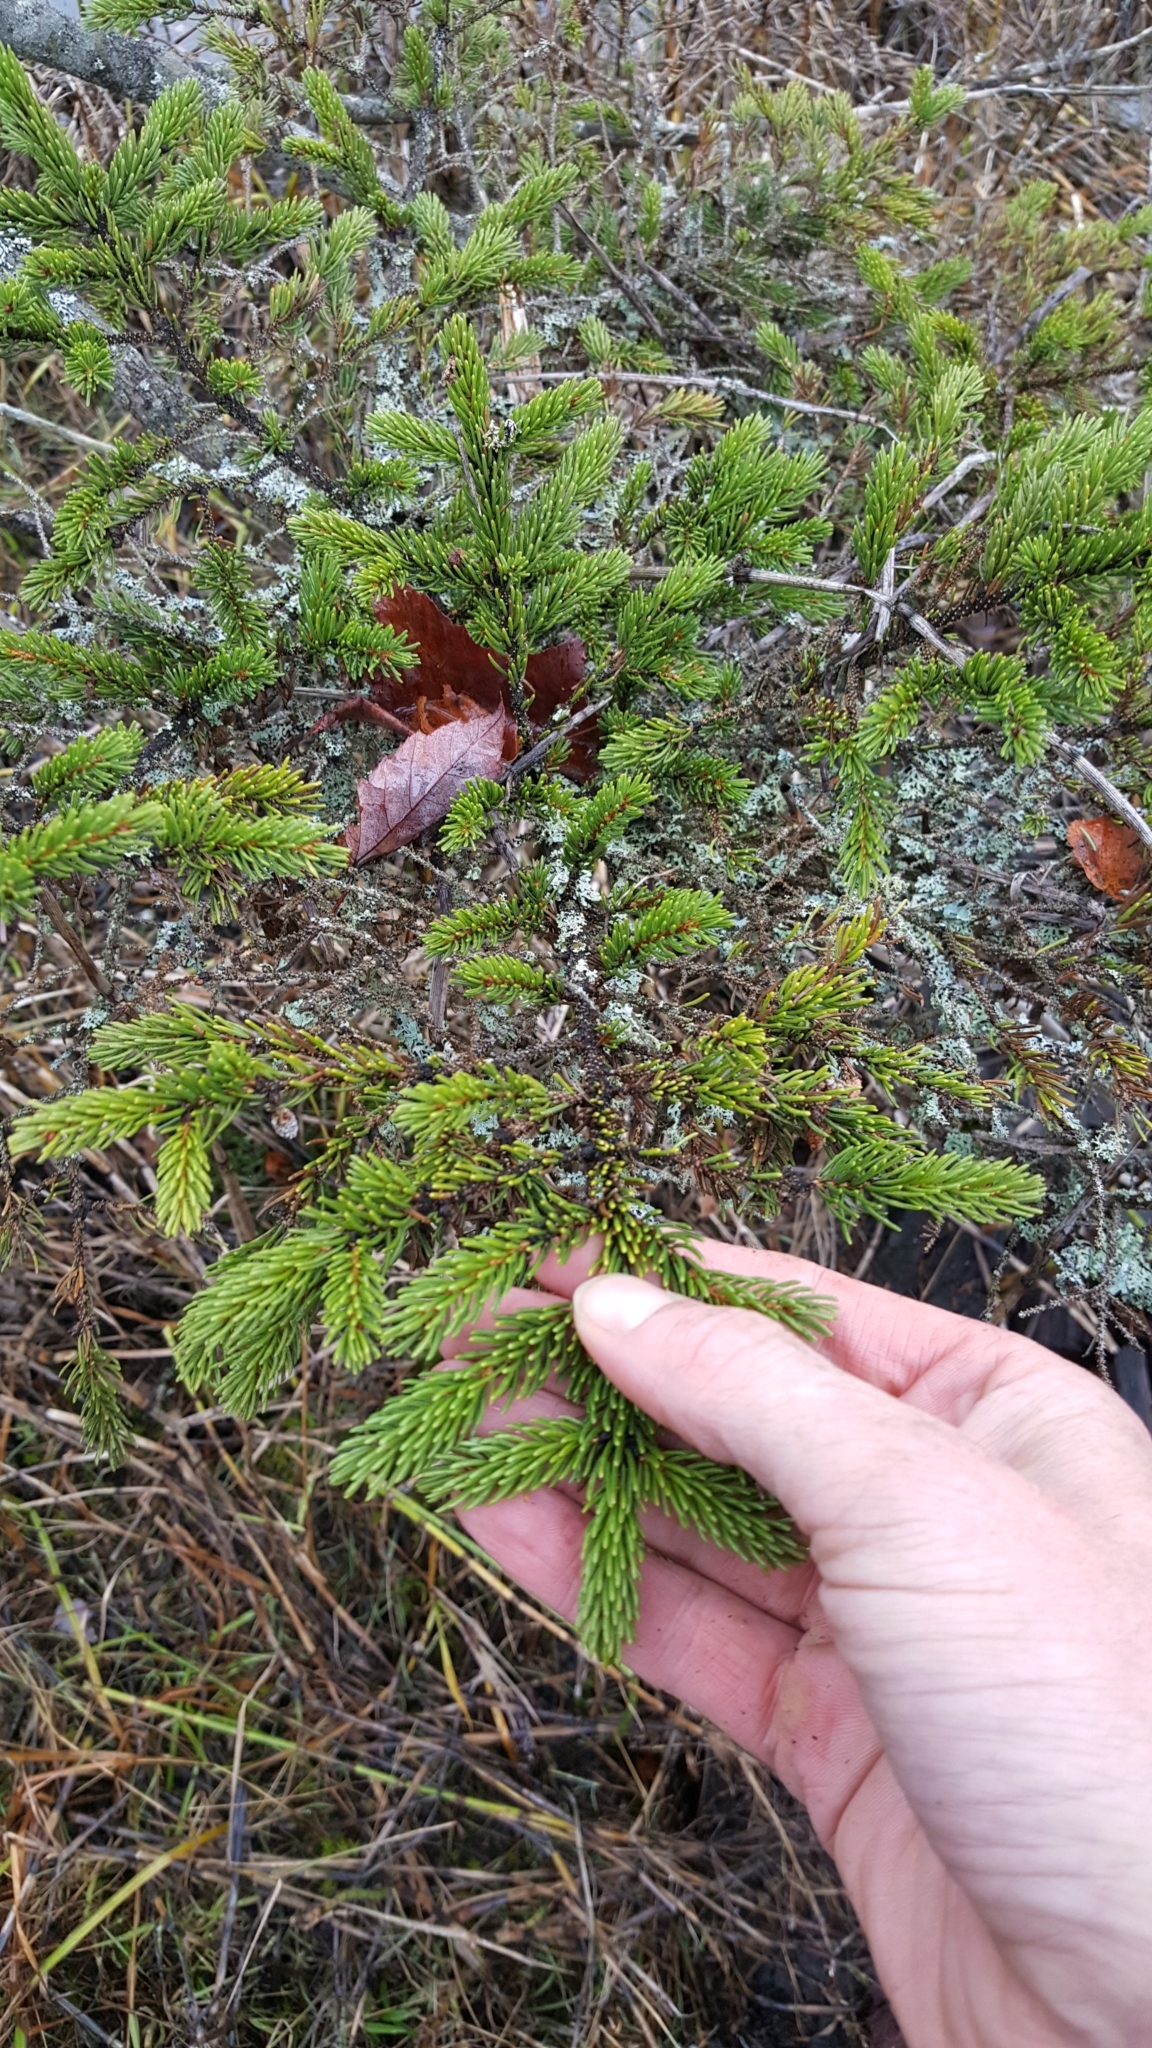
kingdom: Plantae
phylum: Tracheophyta
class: Pinopsida
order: Pinales
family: Pinaceae
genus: Picea
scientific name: Picea mariana
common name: Black spruce
